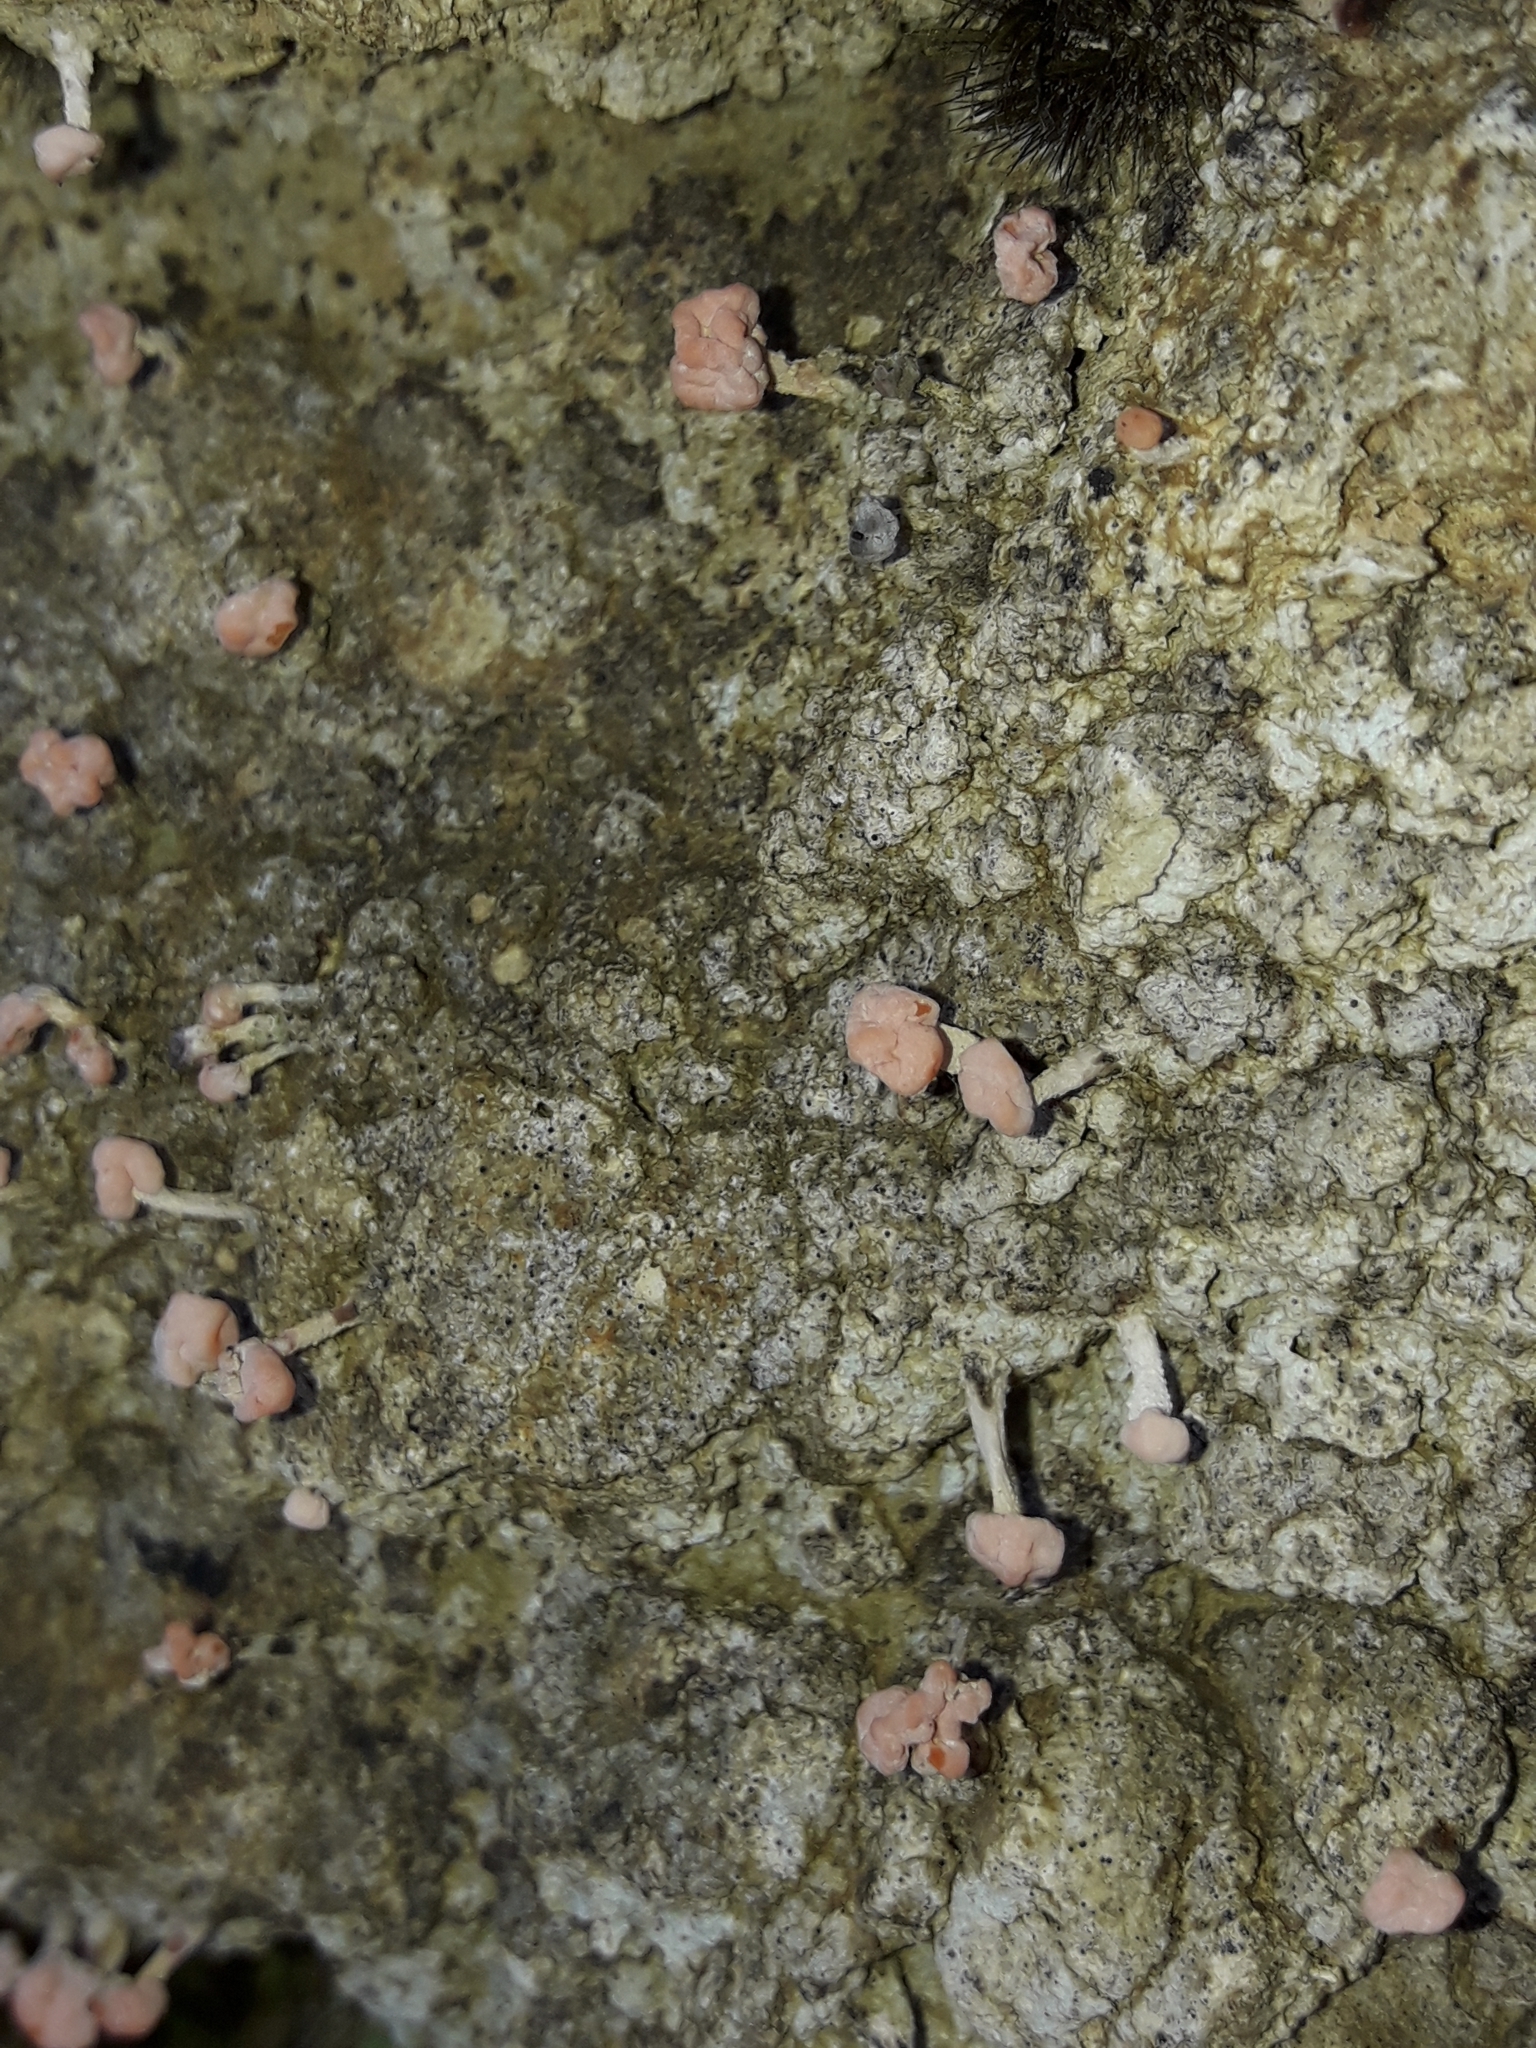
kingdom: Fungi
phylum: Ascomycota
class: Lecanoromycetes
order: Pertusariales
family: Icmadophilaceae
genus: Dibaeis
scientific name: Dibaeis arcuata
